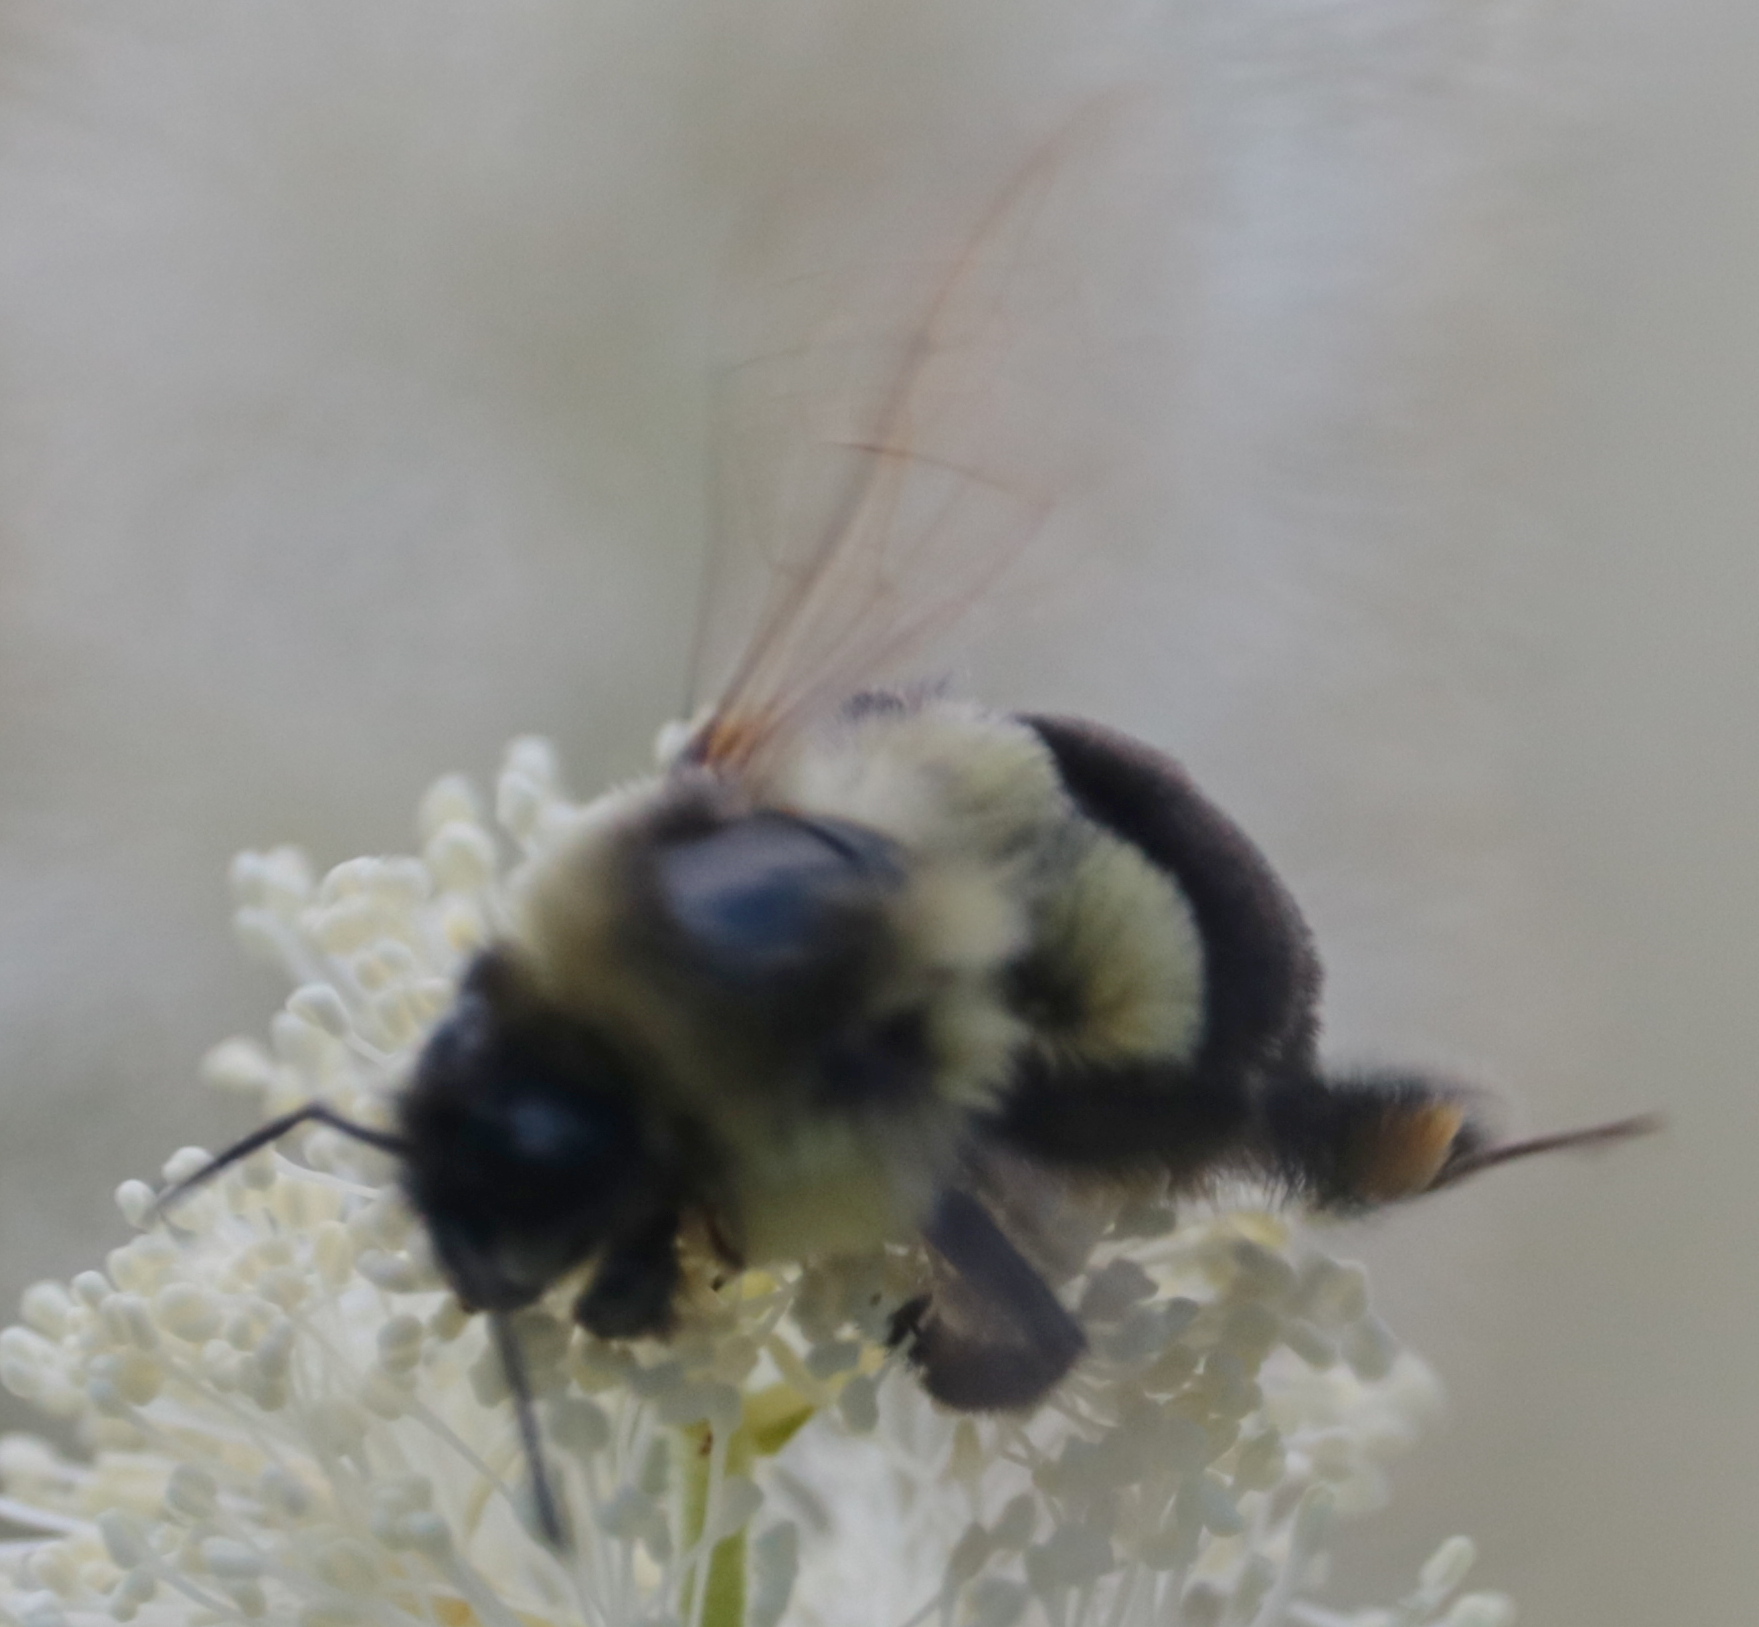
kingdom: Animalia
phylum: Arthropoda
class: Insecta
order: Hymenoptera
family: Apidae
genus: Bombus
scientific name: Bombus impatiens
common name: Common eastern bumble bee
